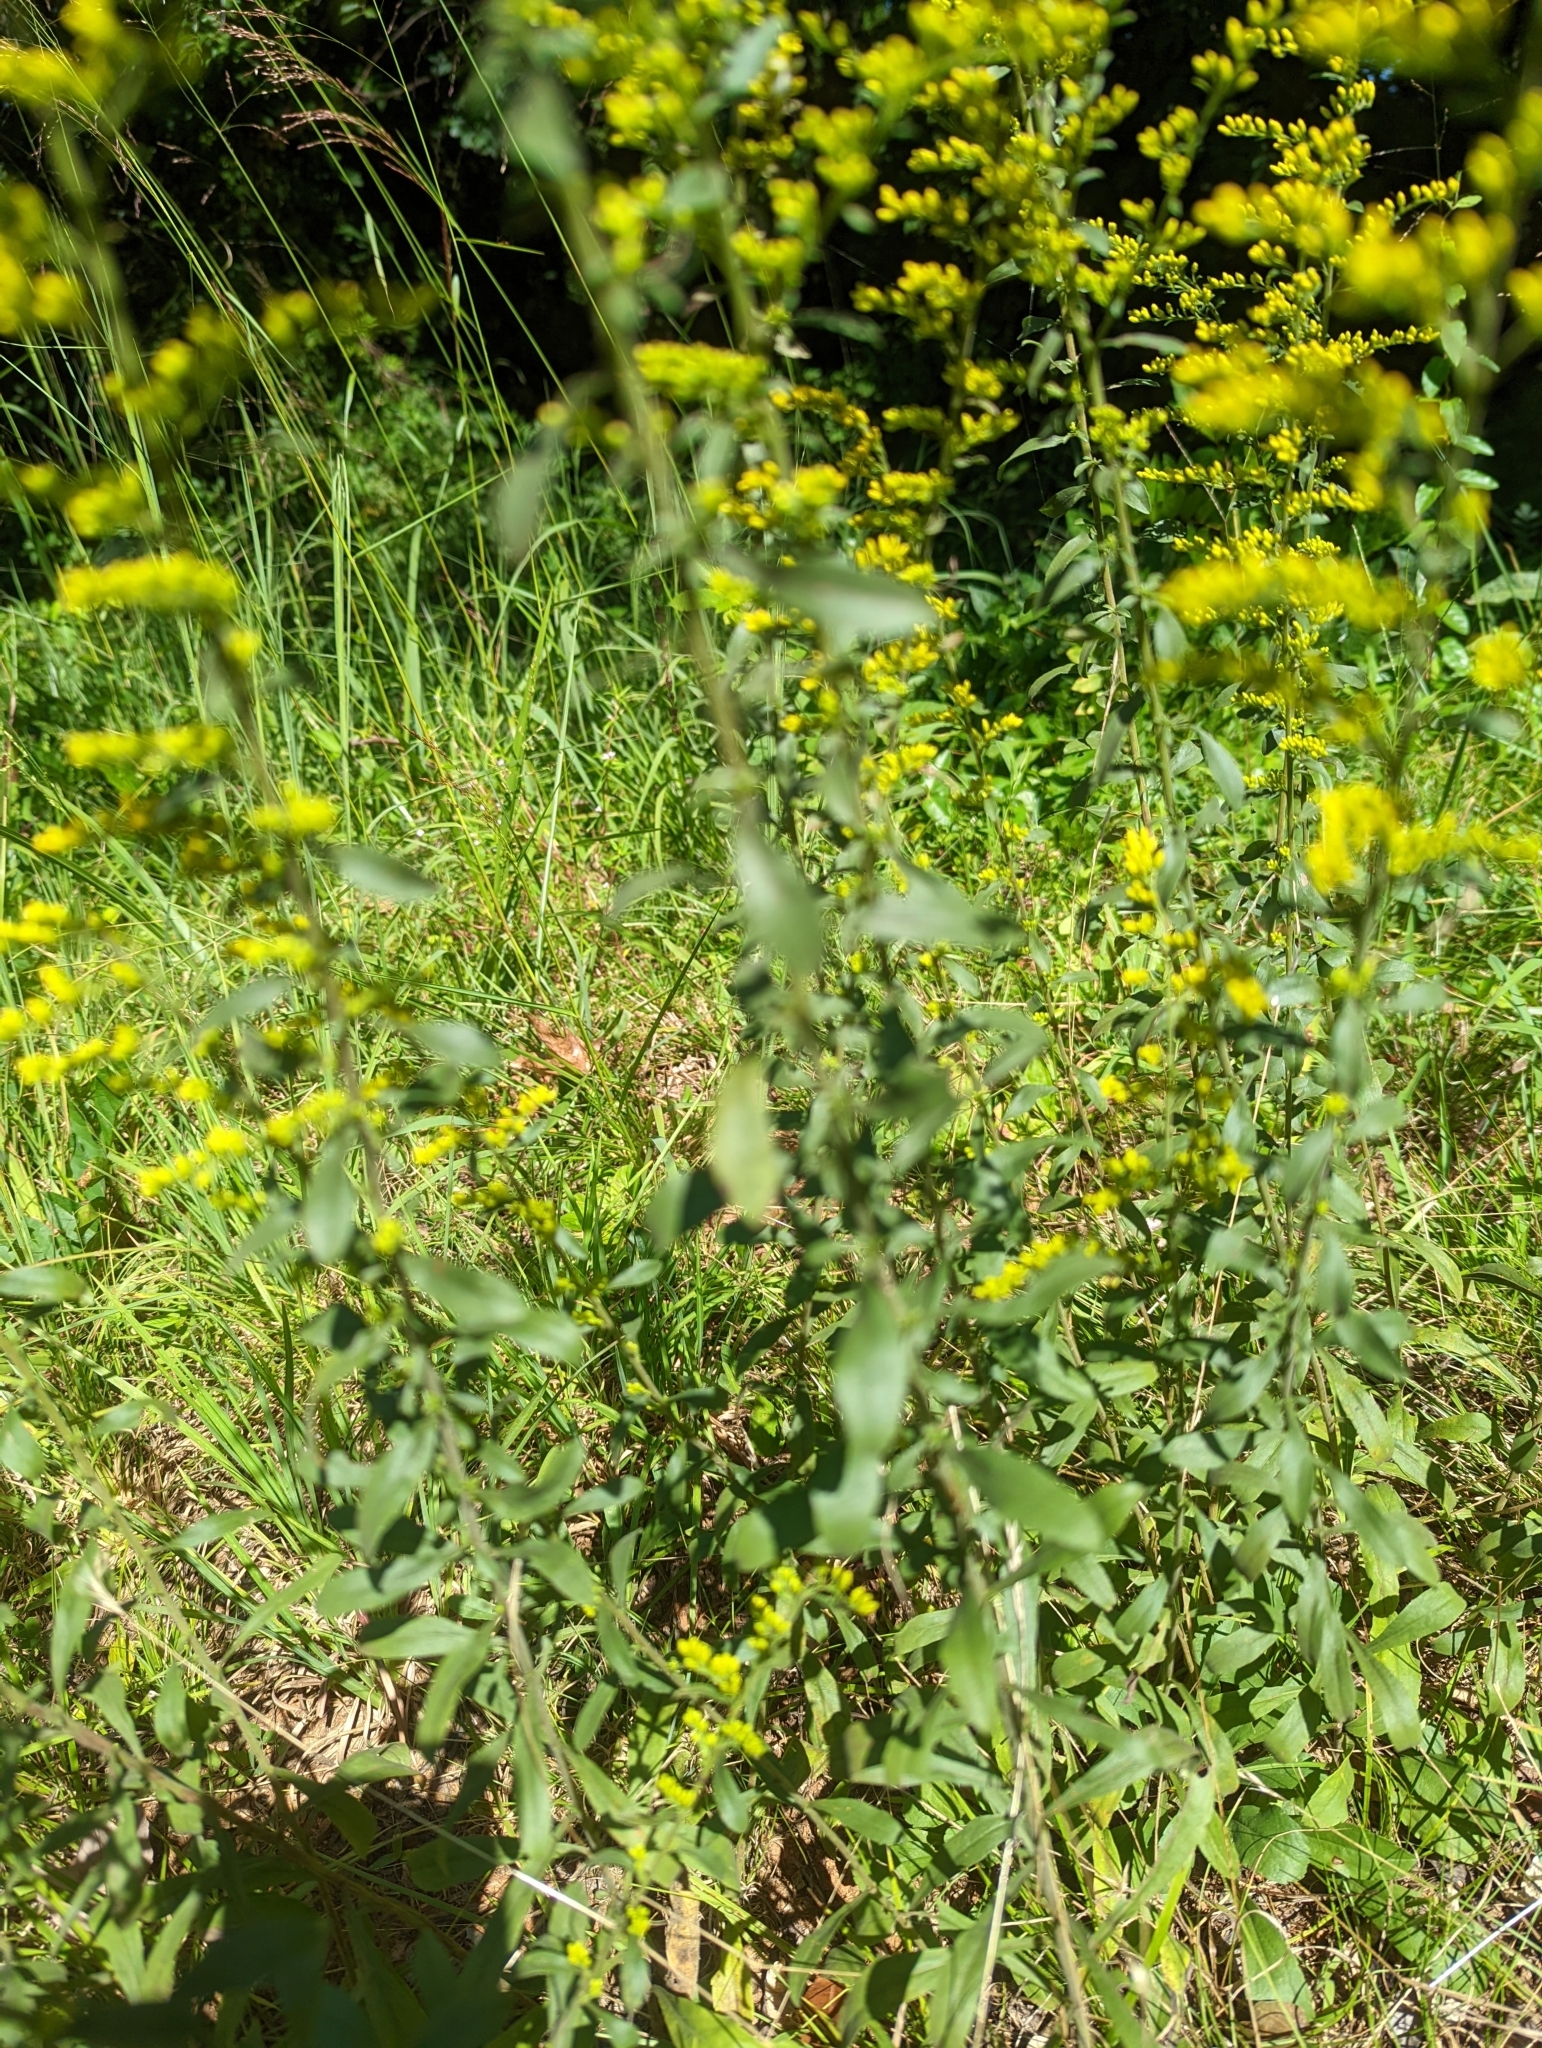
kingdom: Plantae
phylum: Tracheophyta
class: Magnoliopsida
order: Asterales
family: Asteraceae
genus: Solidago
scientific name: Solidago nemoralis
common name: Grey goldenrod
